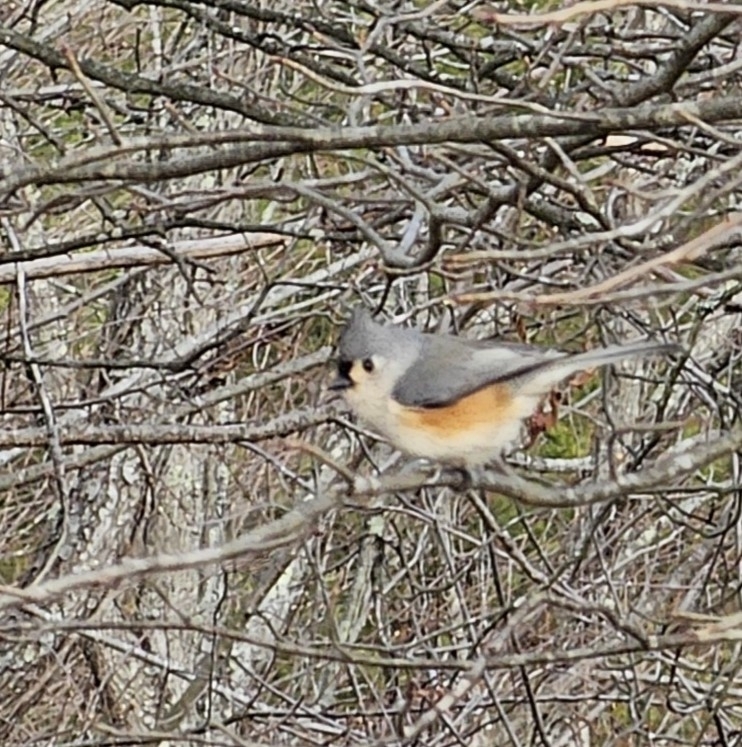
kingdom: Animalia
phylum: Chordata
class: Aves
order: Passeriformes
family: Paridae
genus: Baeolophus
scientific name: Baeolophus bicolor
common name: Tufted titmouse
